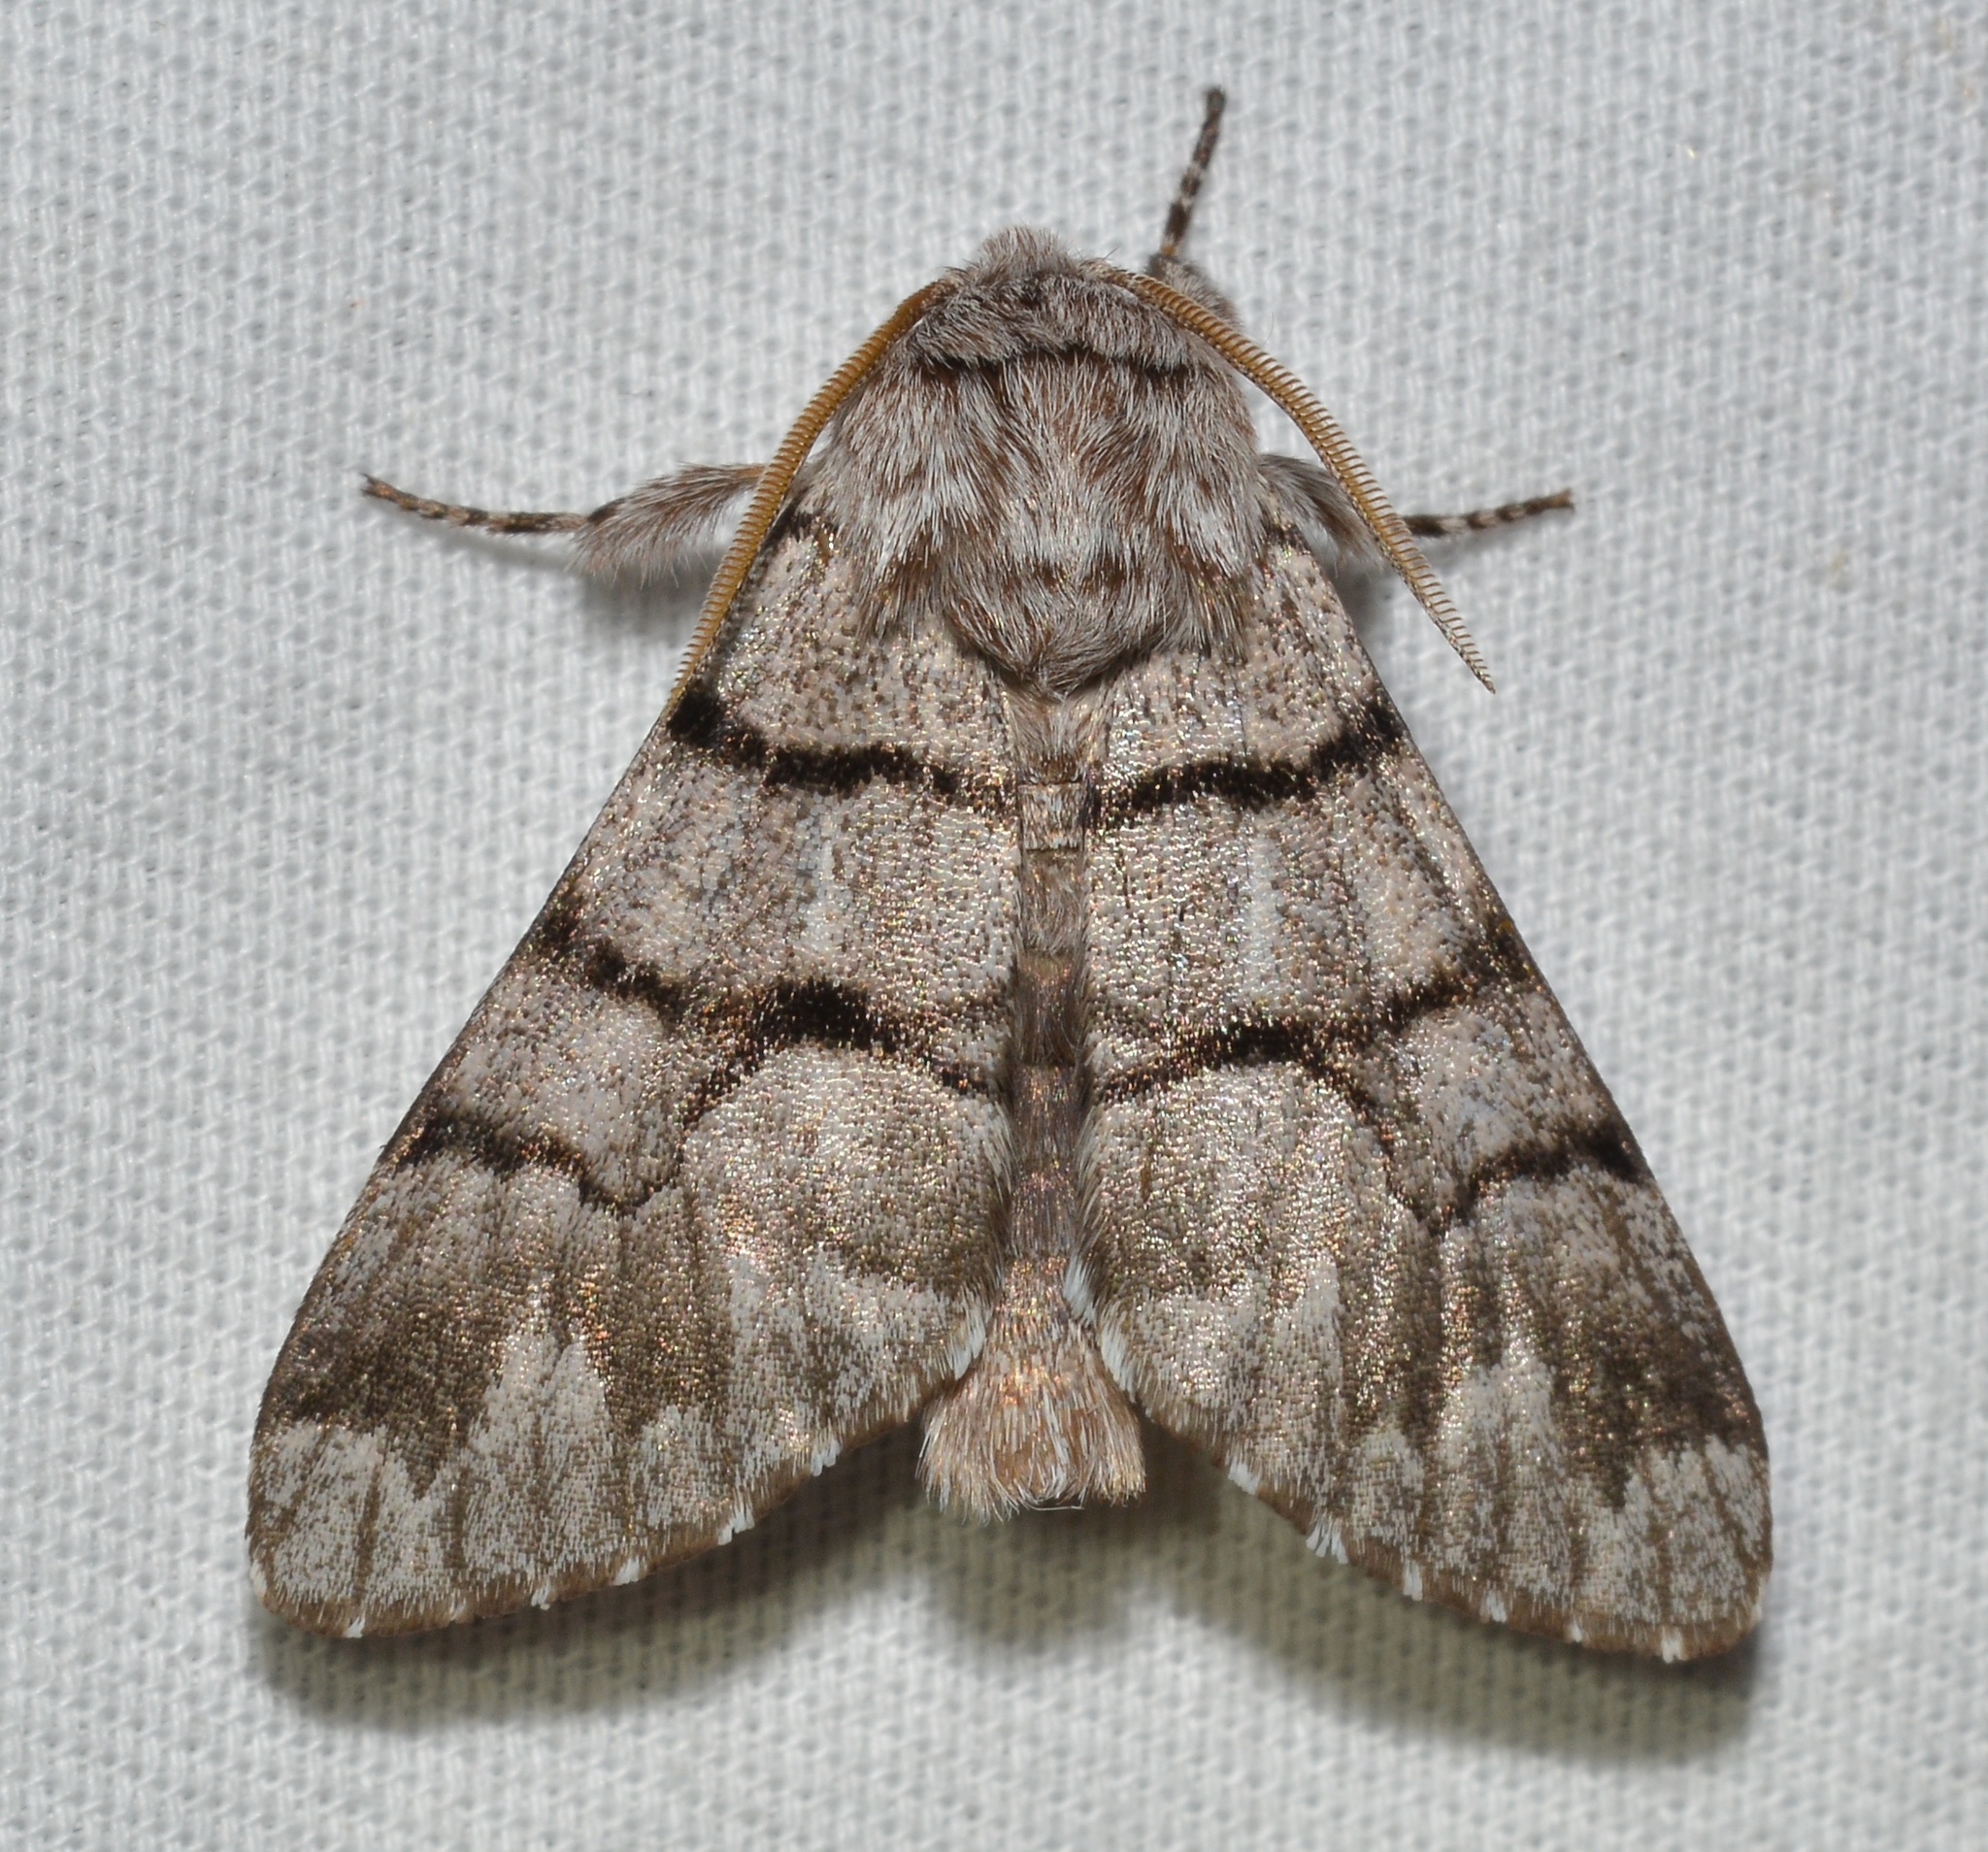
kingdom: Animalia
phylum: Arthropoda
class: Insecta
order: Lepidoptera
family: Noctuidae
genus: Panthea
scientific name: Panthea furcilla
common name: Eastern panthea moth
